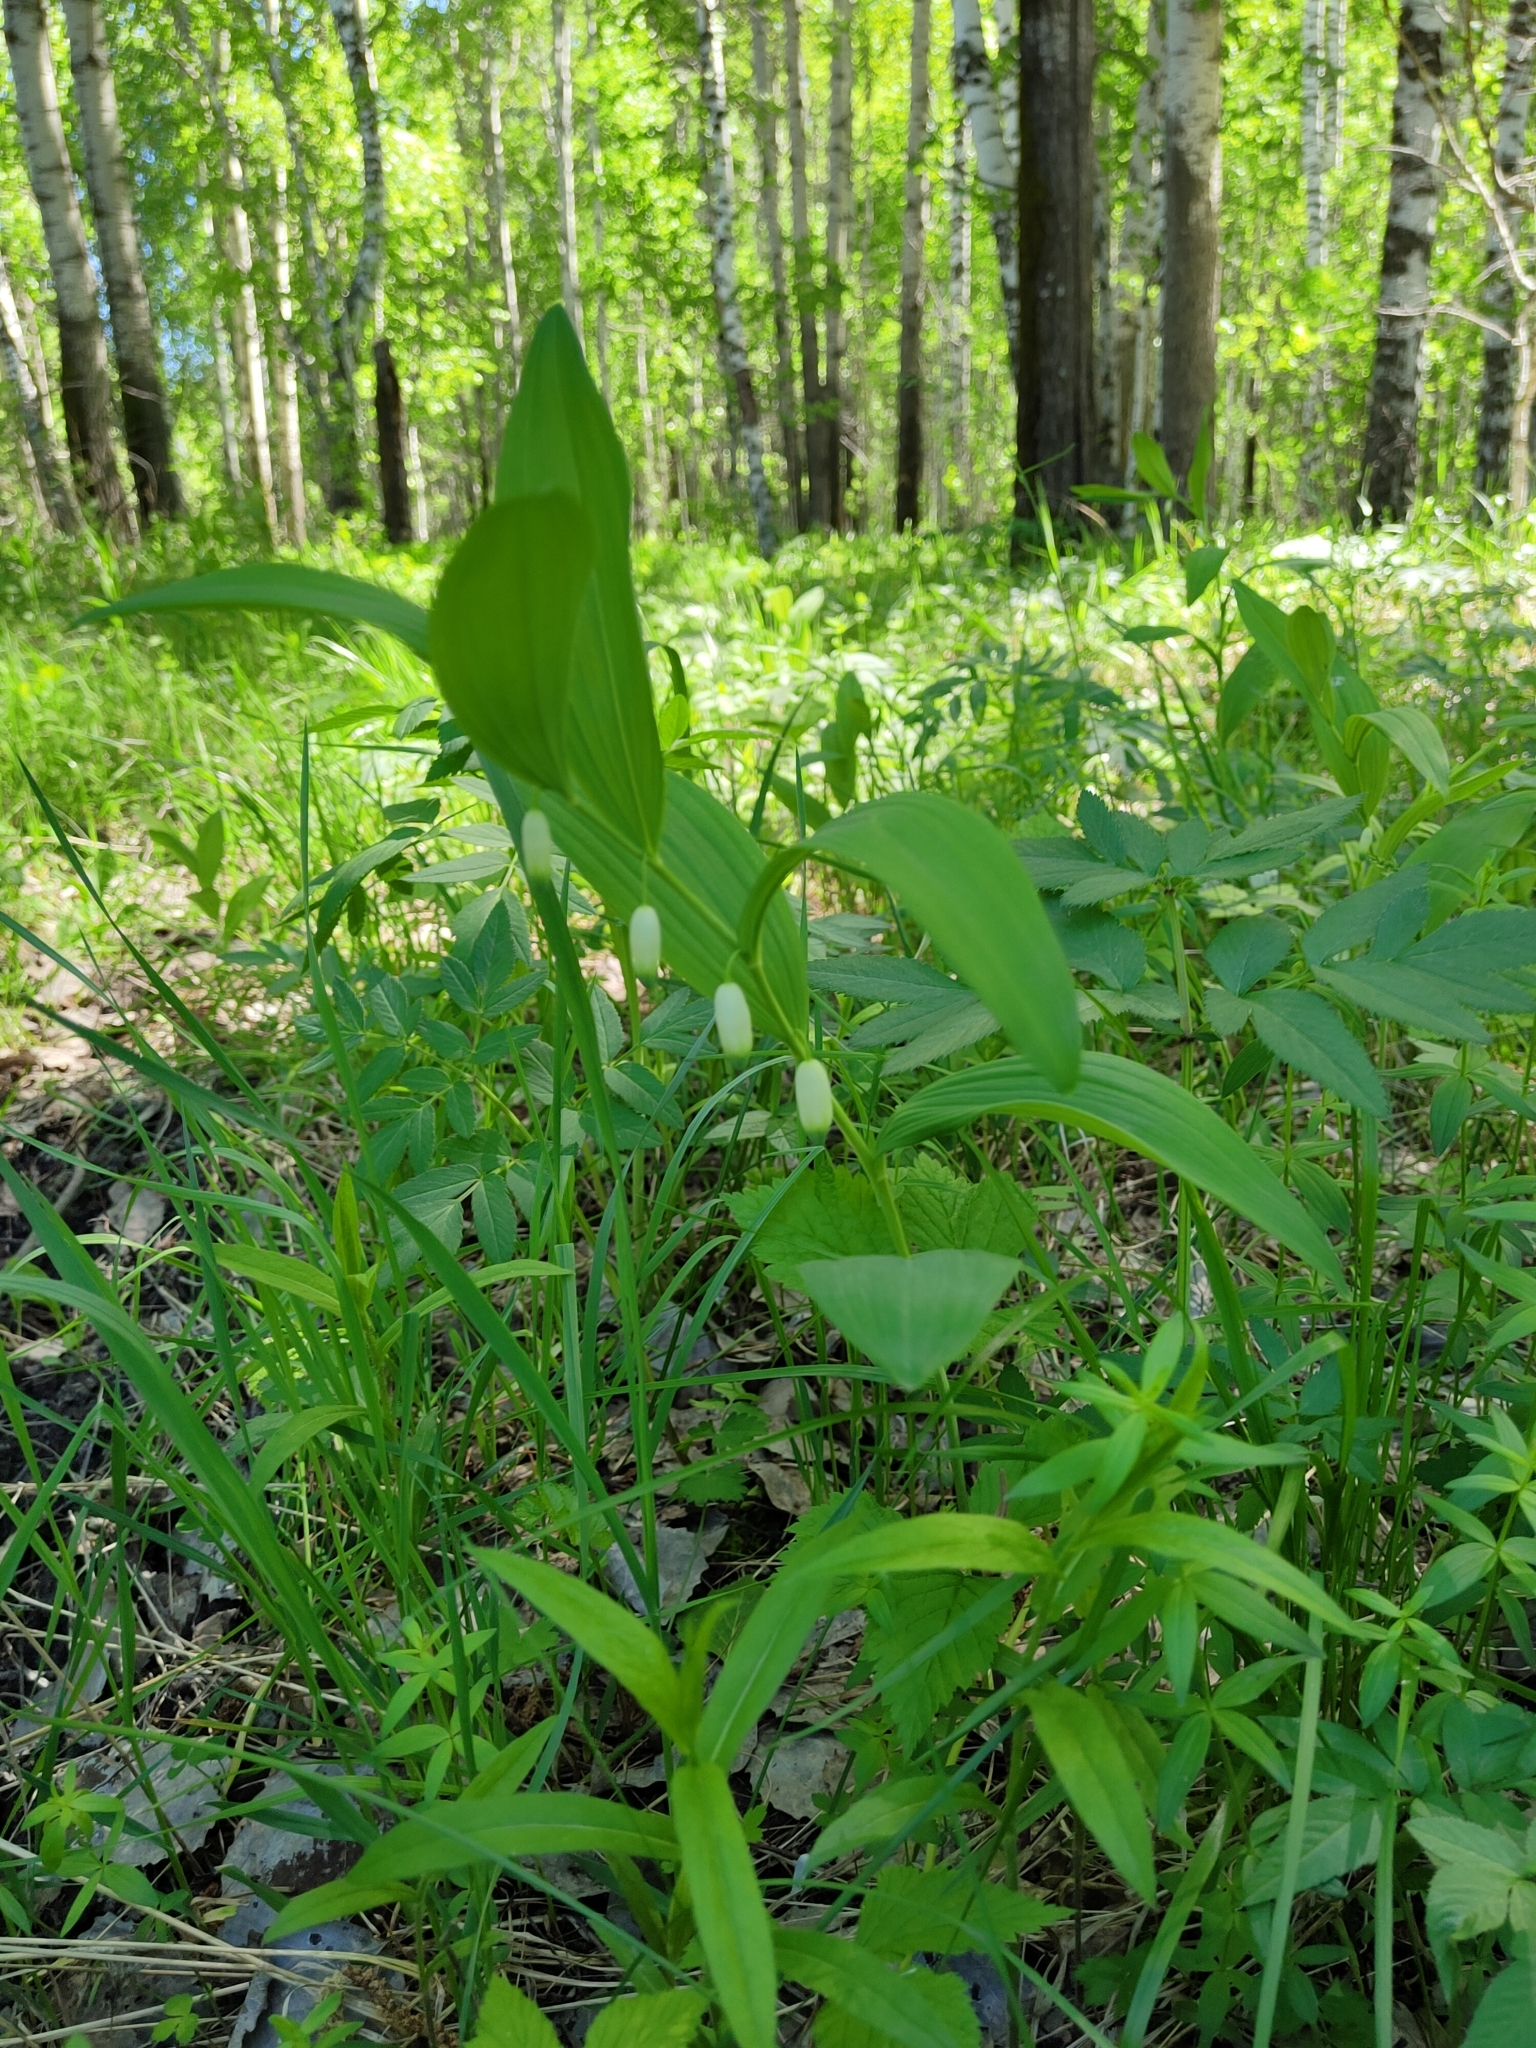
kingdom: Plantae
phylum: Tracheophyta
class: Liliopsida
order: Asparagales
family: Asparagaceae
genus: Polygonatum
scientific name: Polygonatum humile
